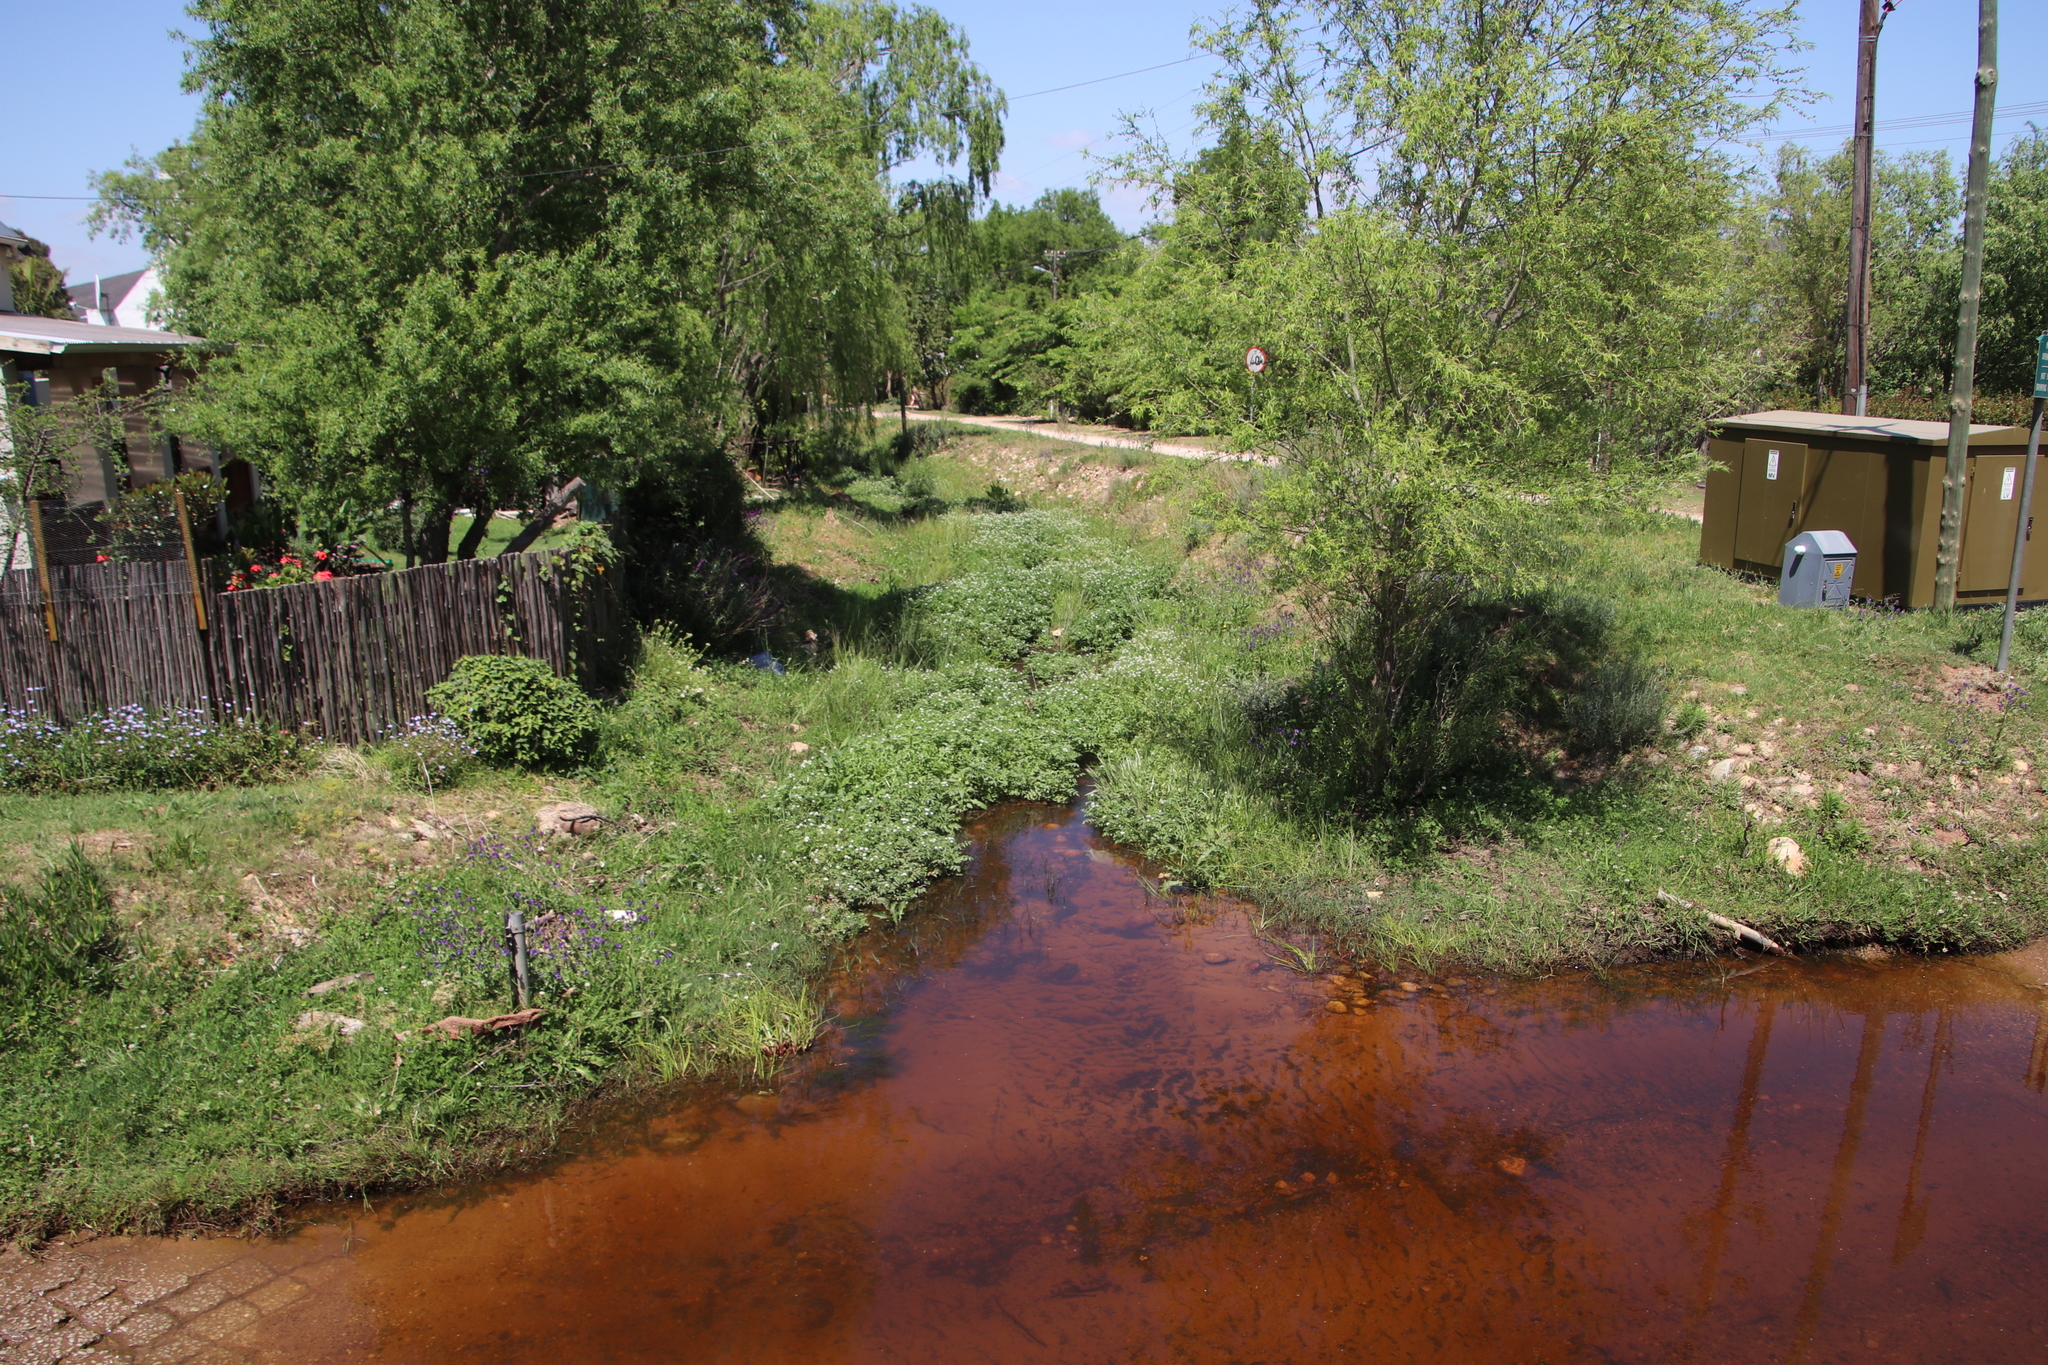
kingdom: Plantae
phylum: Tracheophyta
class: Magnoliopsida
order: Brassicales
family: Brassicaceae
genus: Nasturtium
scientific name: Nasturtium officinale
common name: Watercress
